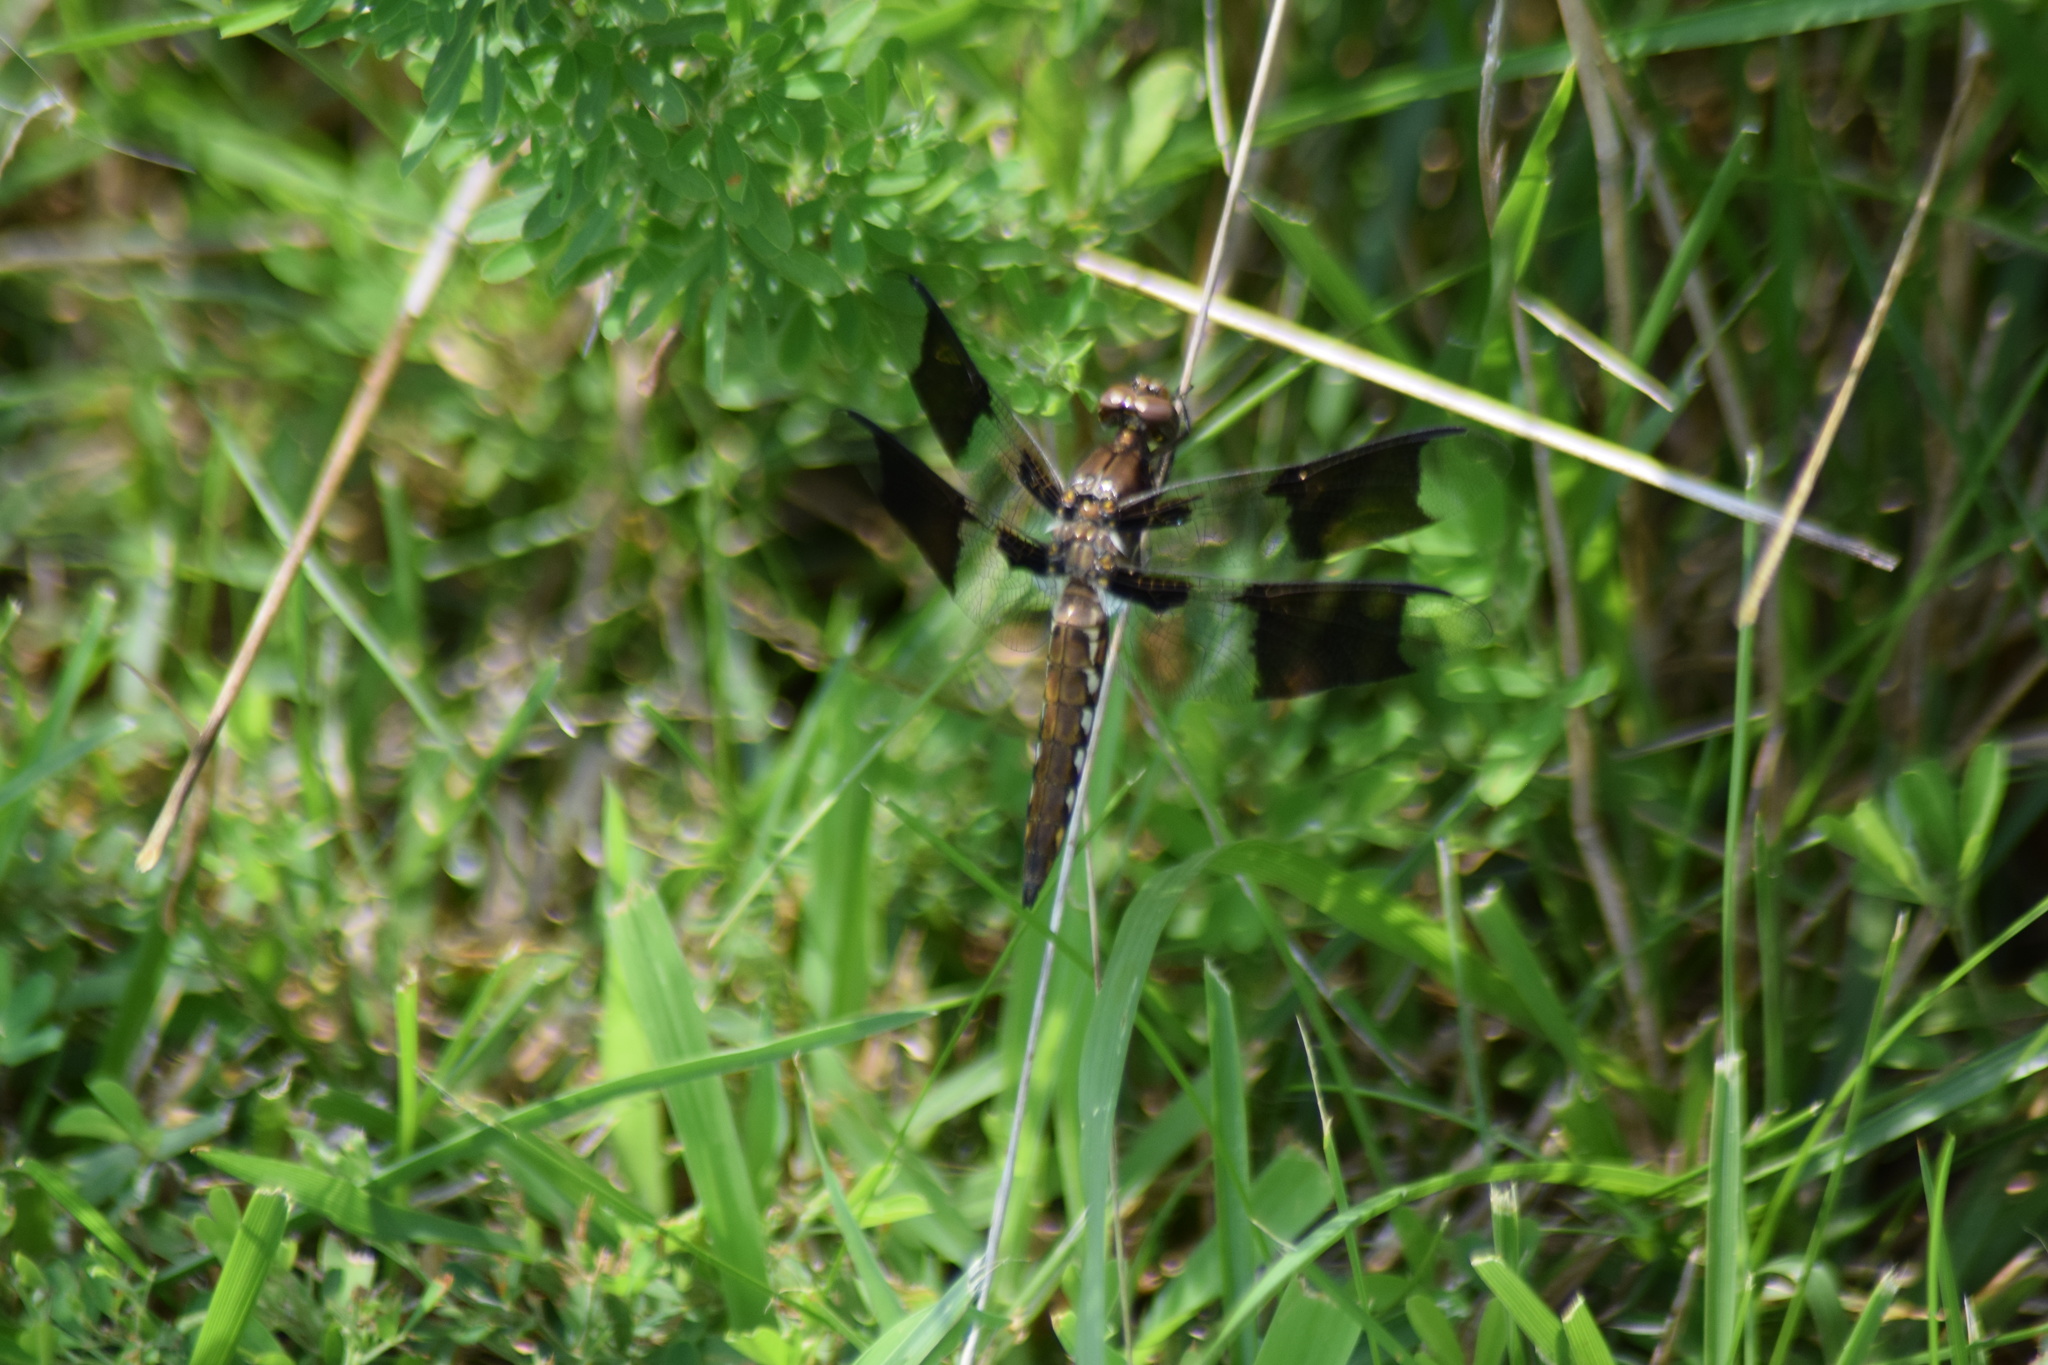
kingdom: Animalia
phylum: Arthropoda
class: Insecta
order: Odonata
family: Libellulidae
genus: Plathemis
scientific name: Plathemis lydia
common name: Common whitetail
